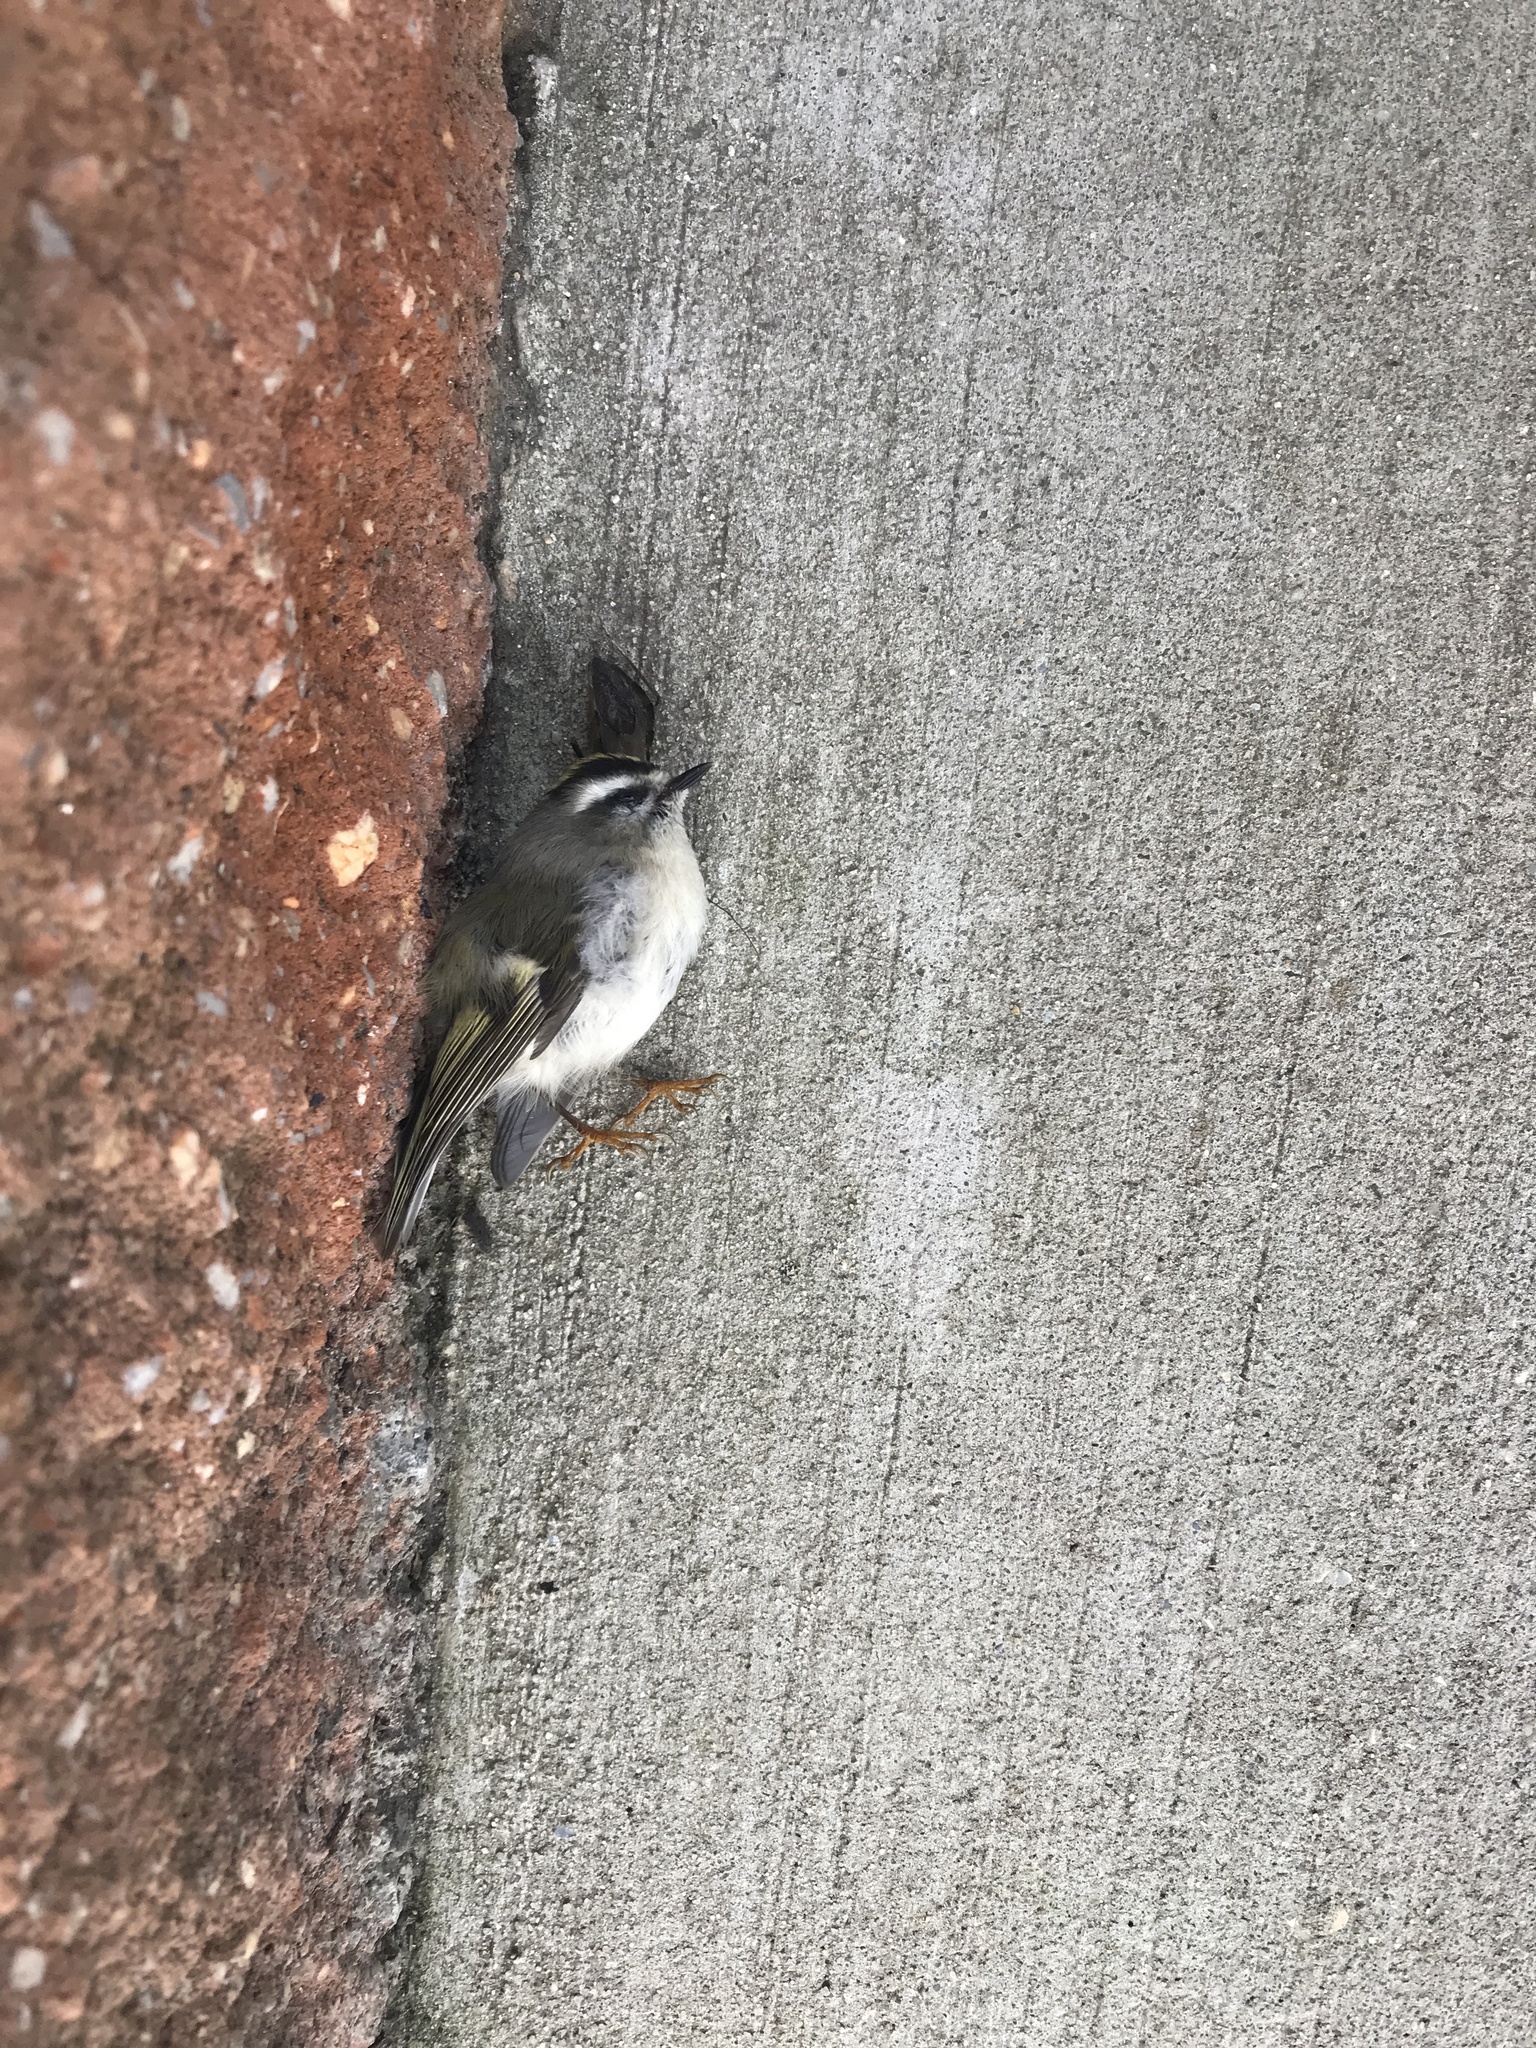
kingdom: Animalia
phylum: Chordata
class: Aves
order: Passeriformes
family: Regulidae
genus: Regulus
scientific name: Regulus satrapa
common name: Golden-crowned kinglet
